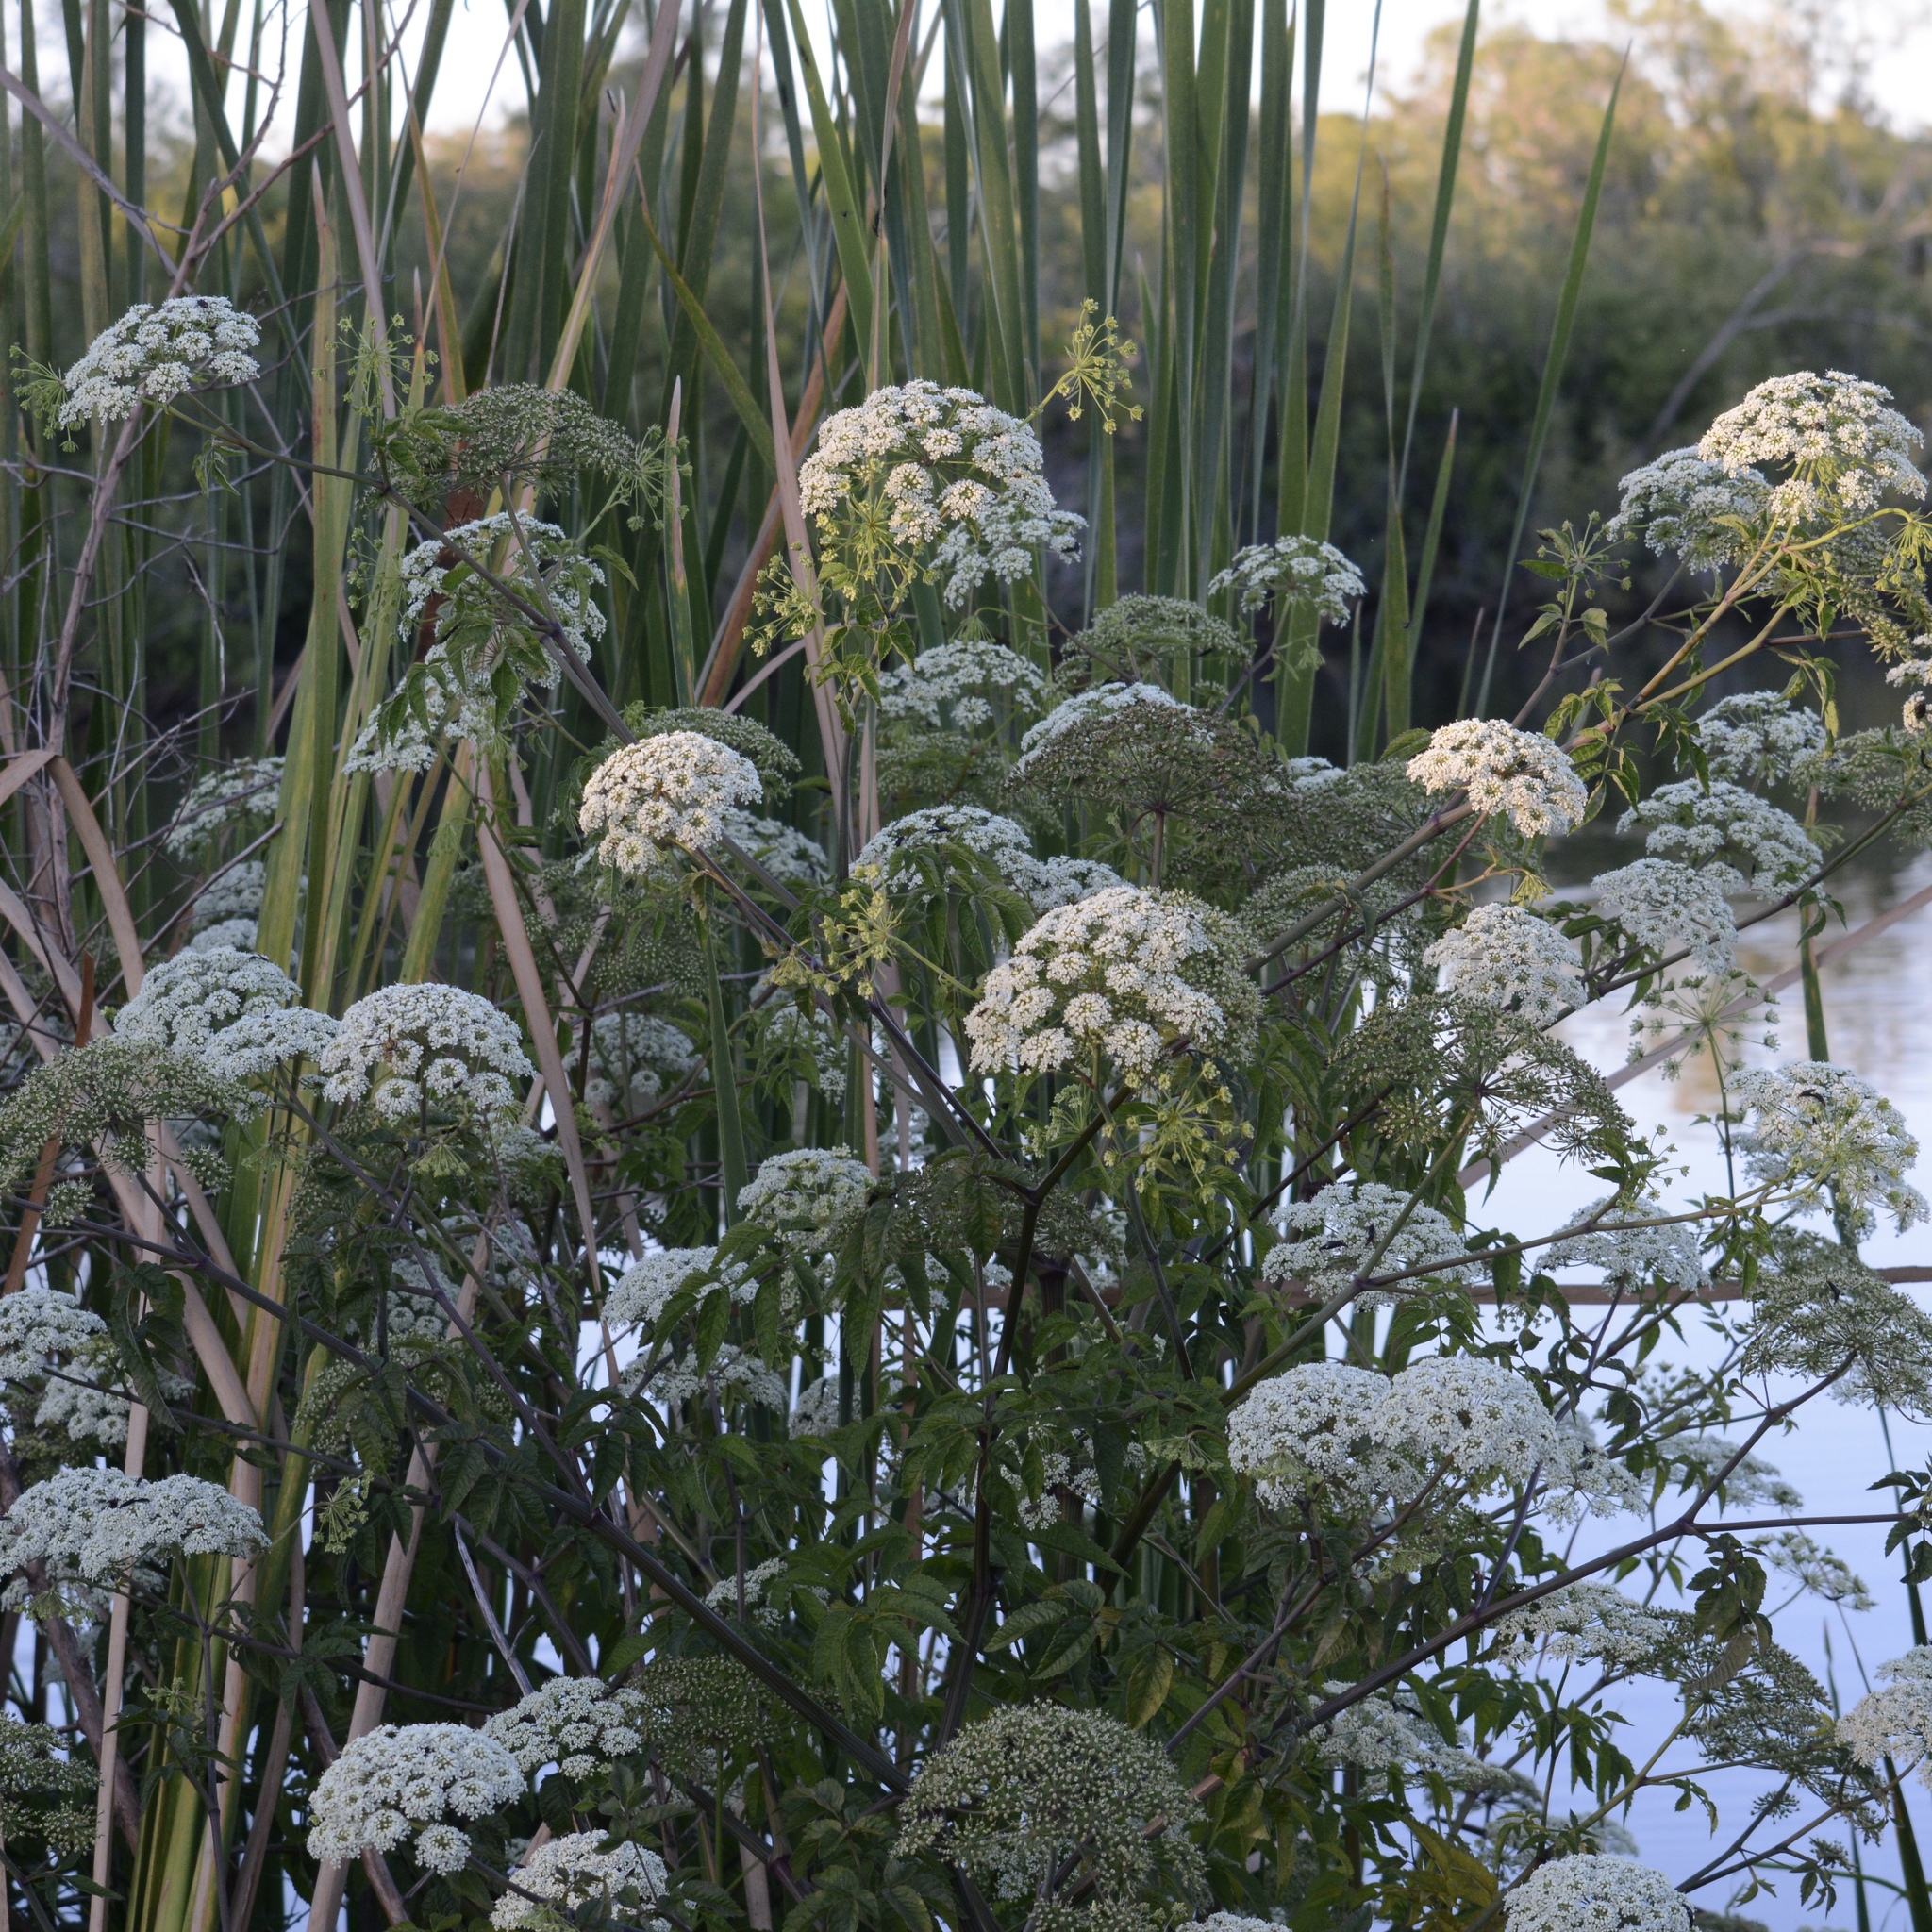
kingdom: Plantae
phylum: Tracheophyta
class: Magnoliopsida
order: Apiales
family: Apiaceae
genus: Cicuta
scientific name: Cicuta maculata
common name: Spotted cowbane
